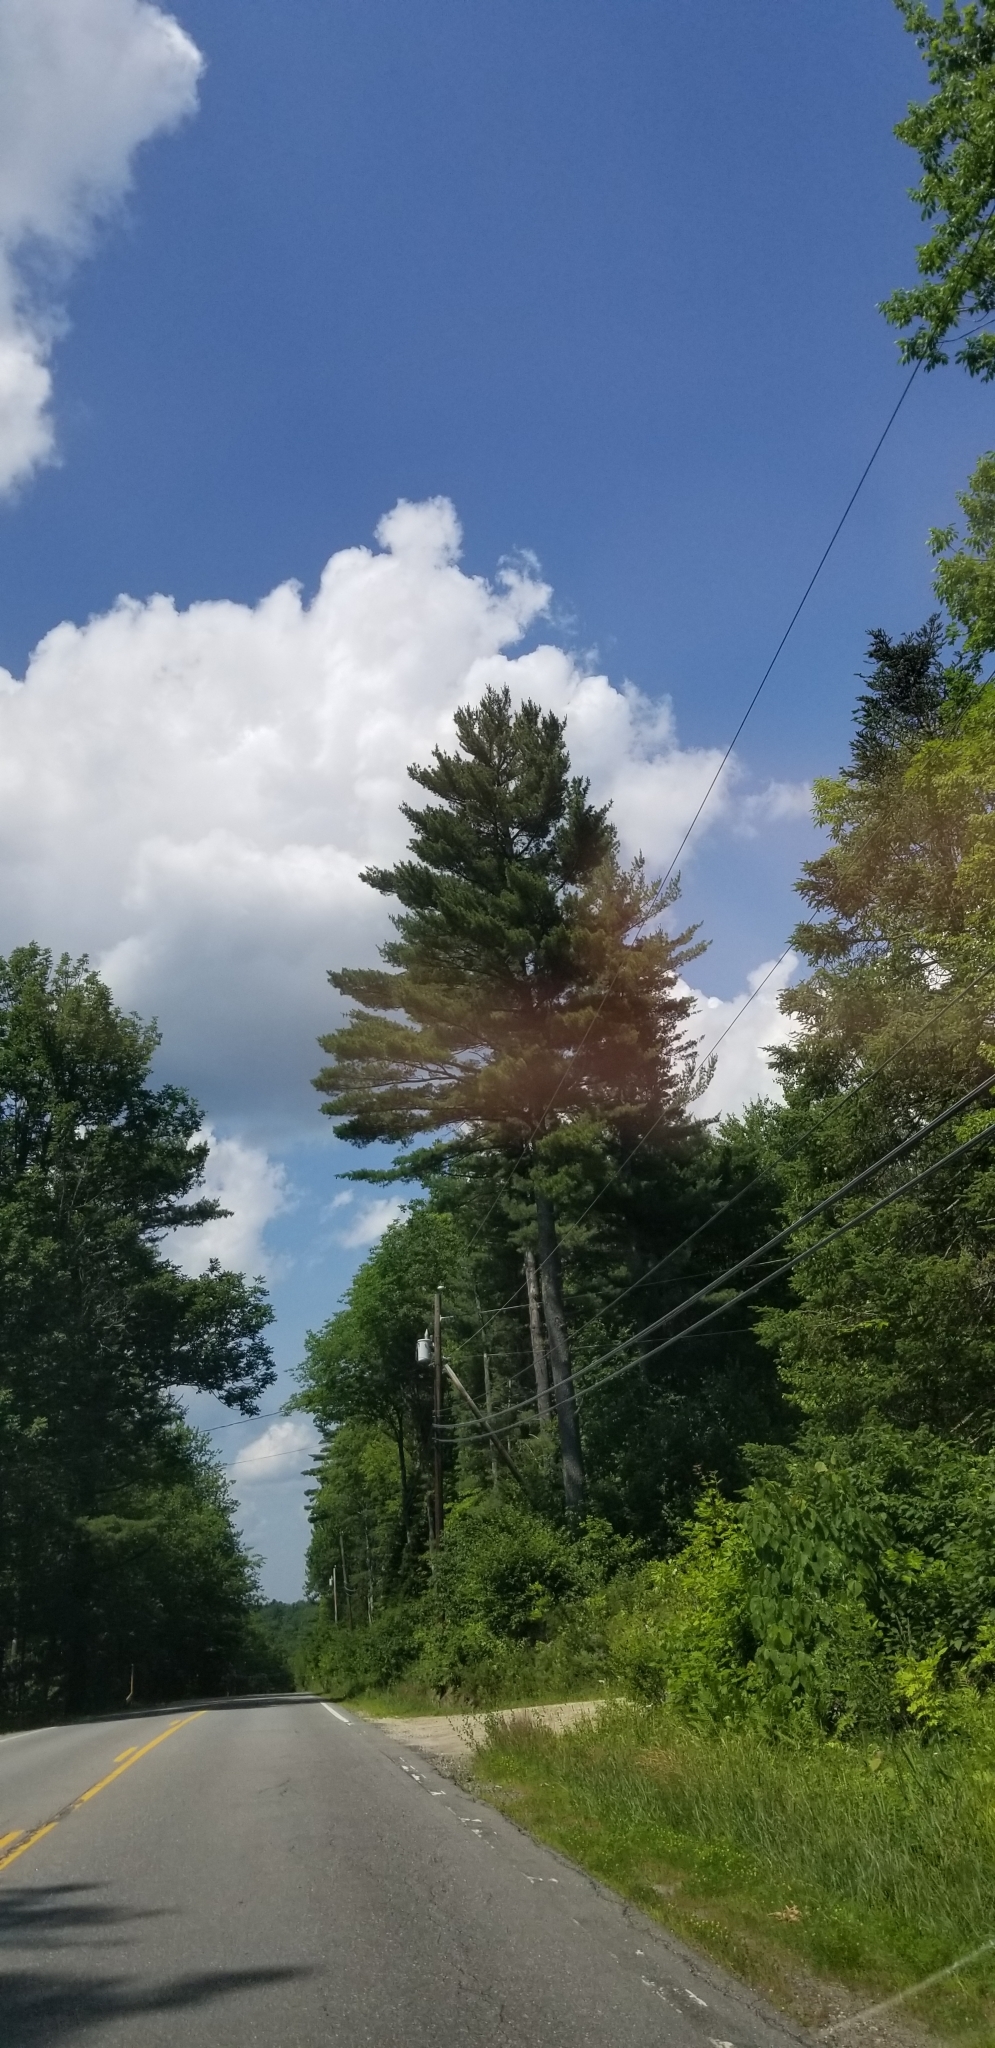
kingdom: Plantae
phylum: Tracheophyta
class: Pinopsida
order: Pinales
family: Pinaceae
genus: Pinus
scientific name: Pinus strobus
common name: Weymouth pine
